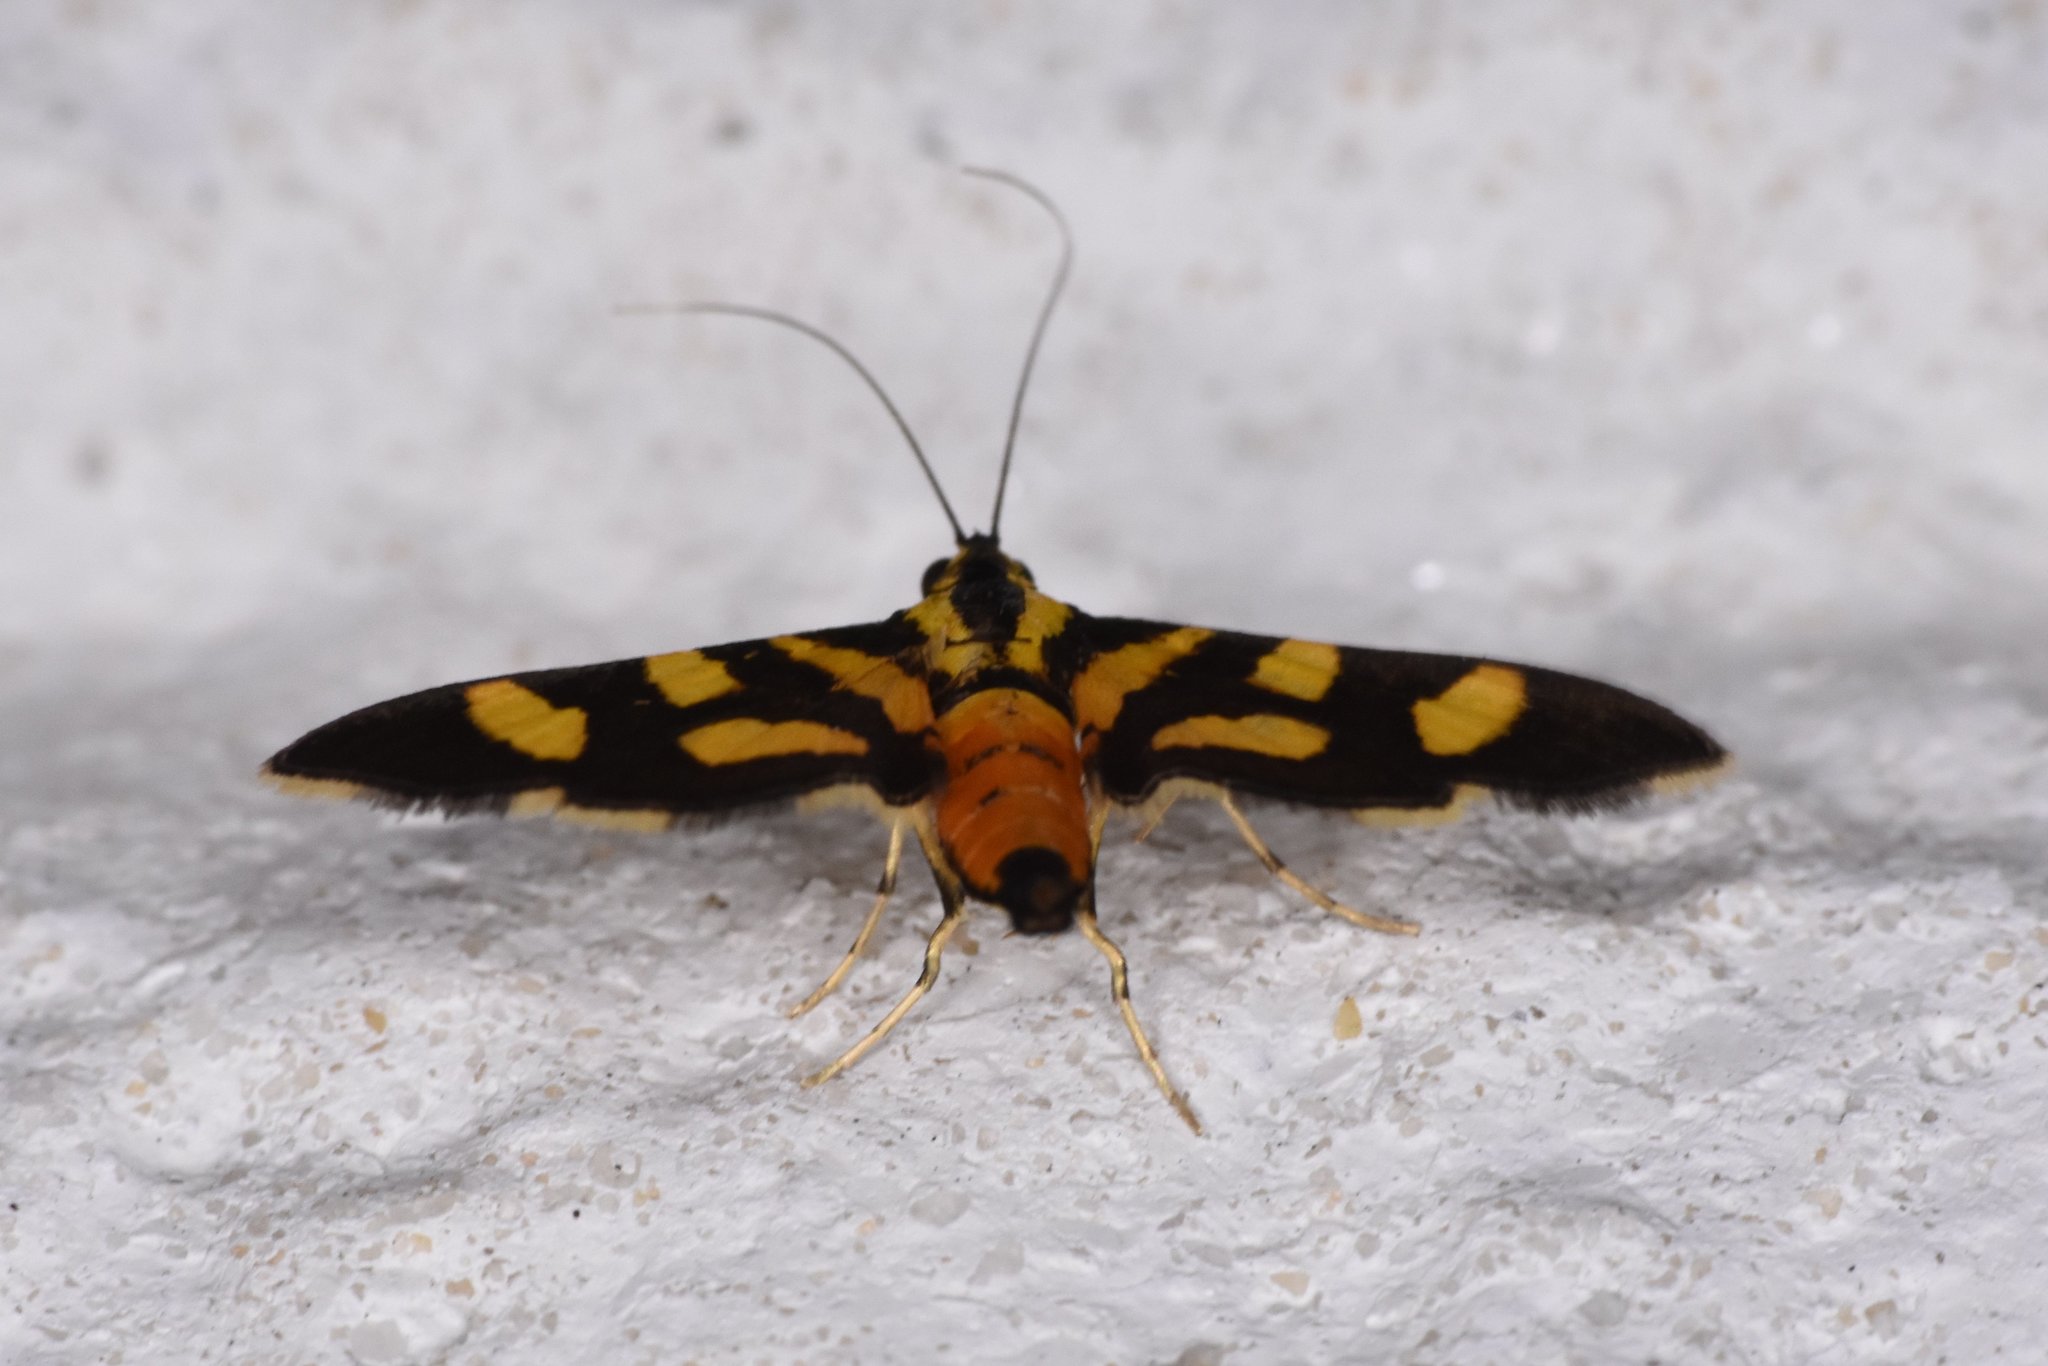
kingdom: Animalia
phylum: Arthropoda
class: Insecta
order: Lepidoptera
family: Crambidae
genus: Syngamia
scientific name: Syngamia florella
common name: Orange-spotted flower moth
